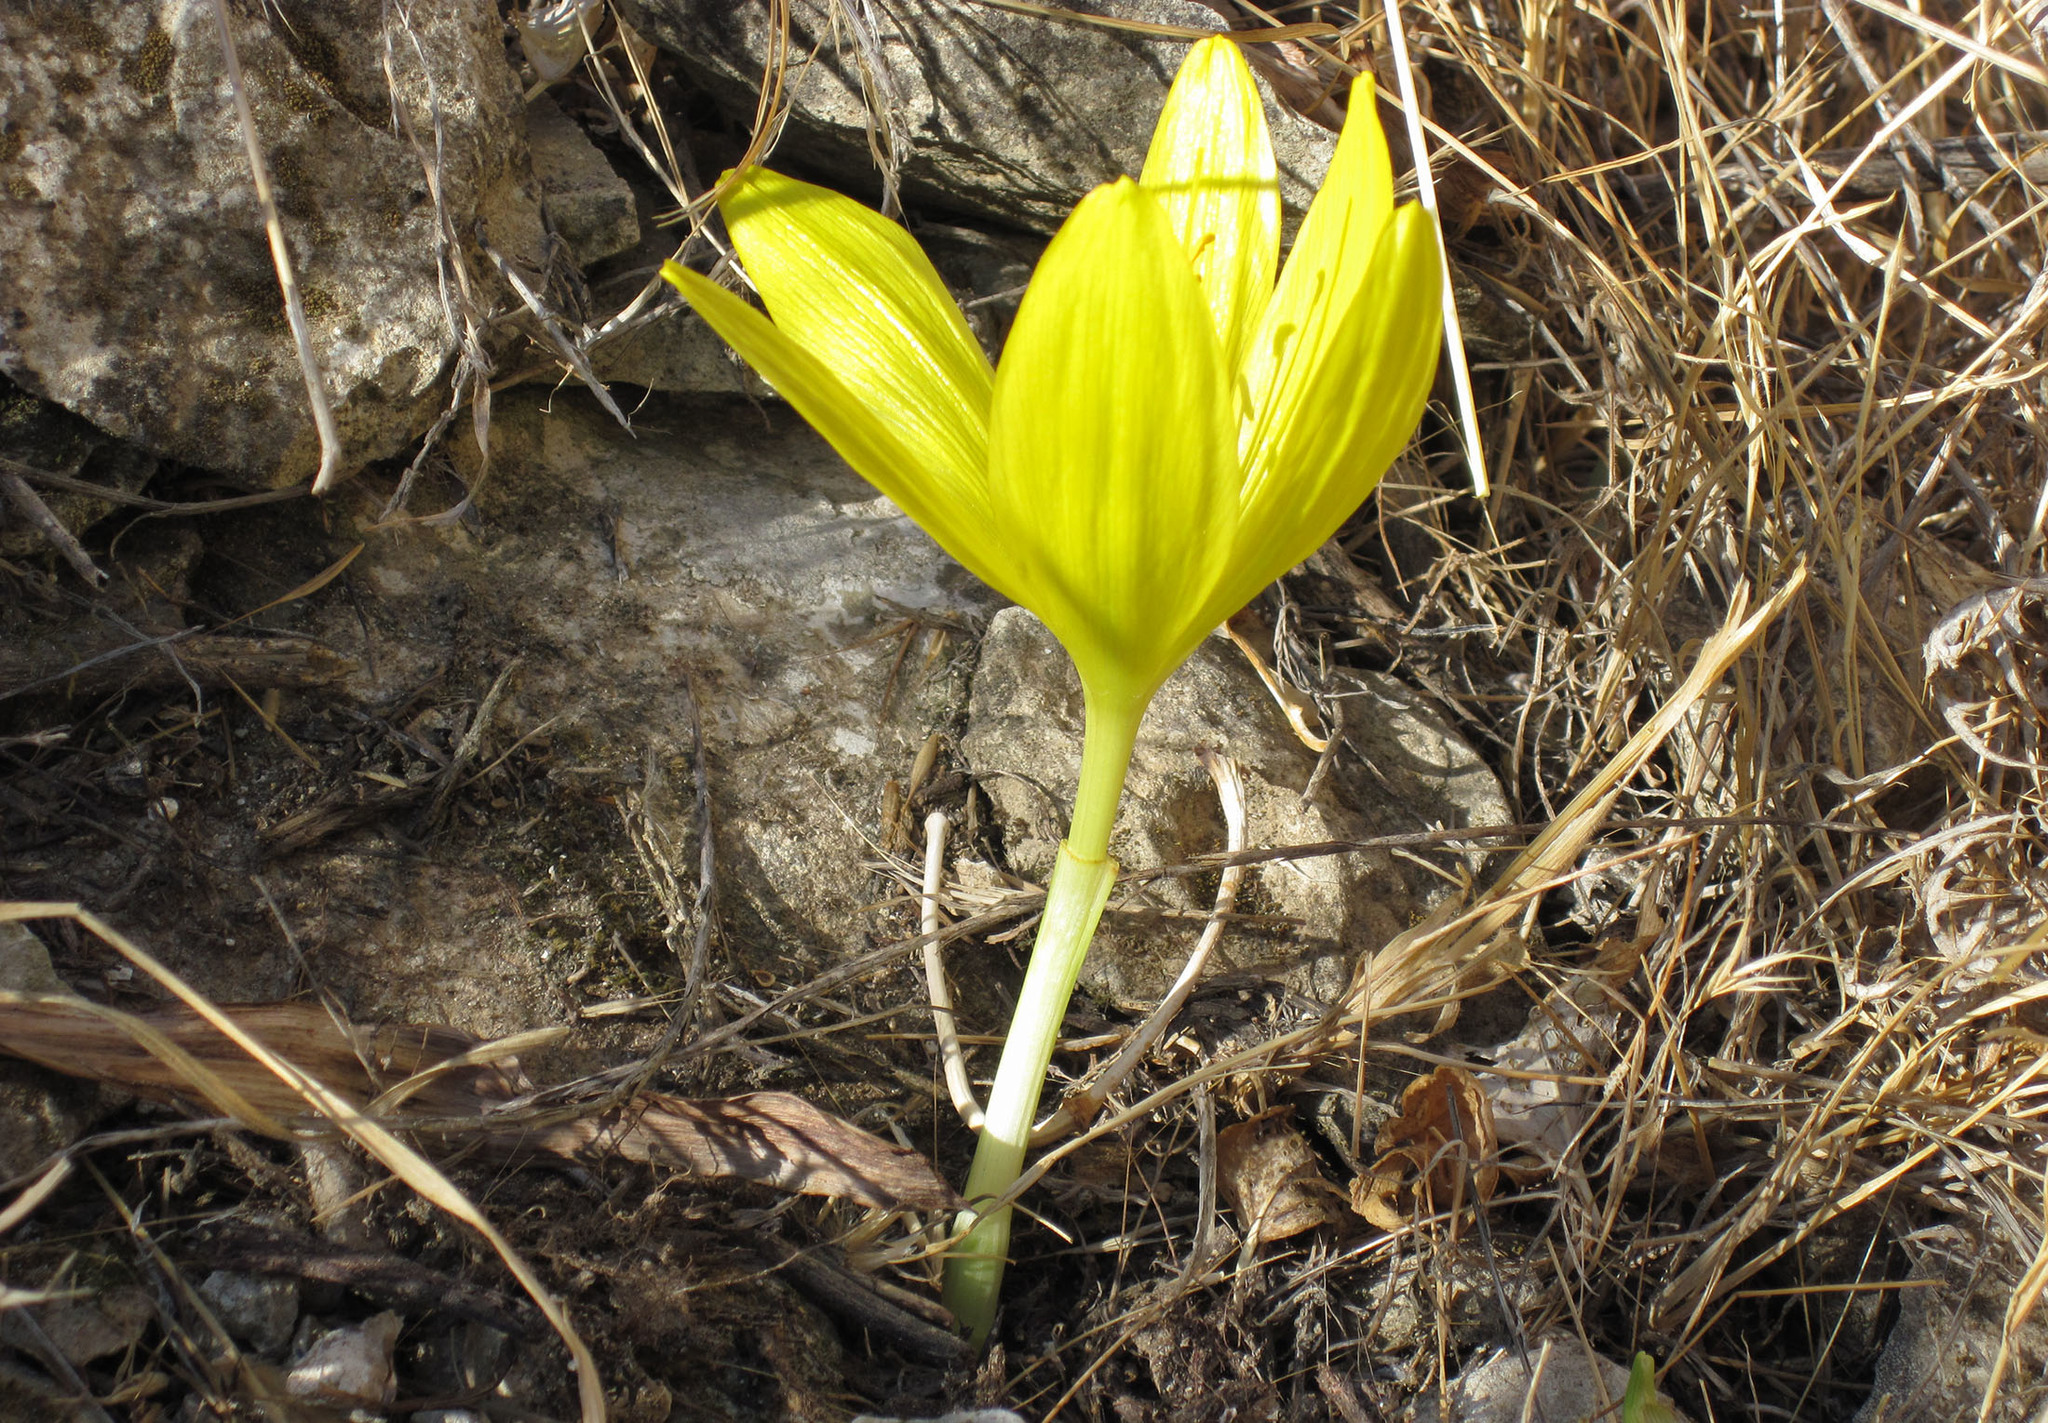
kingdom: Plantae
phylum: Tracheophyta
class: Liliopsida
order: Asparagales
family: Amaryllidaceae
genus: Sternbergia
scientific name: Sternbergia clusiana
